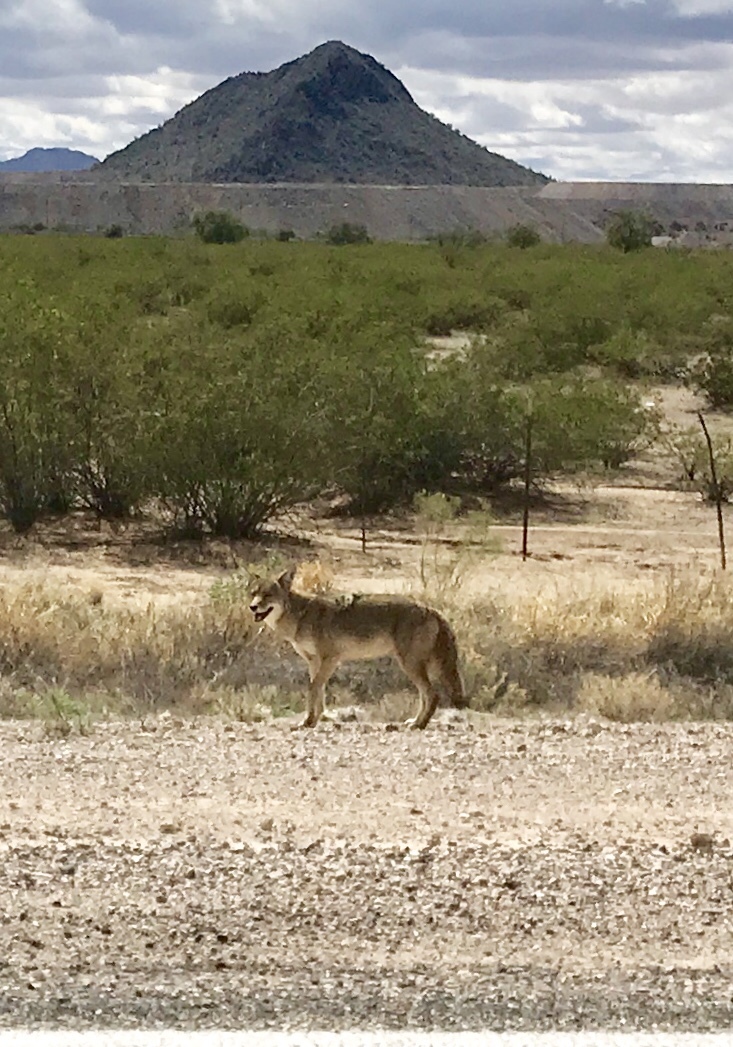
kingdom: Animalia
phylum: Chordata
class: Mammalia
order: Carnivora
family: Canidae
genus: Canis
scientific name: Canis latrans
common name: Coyote
